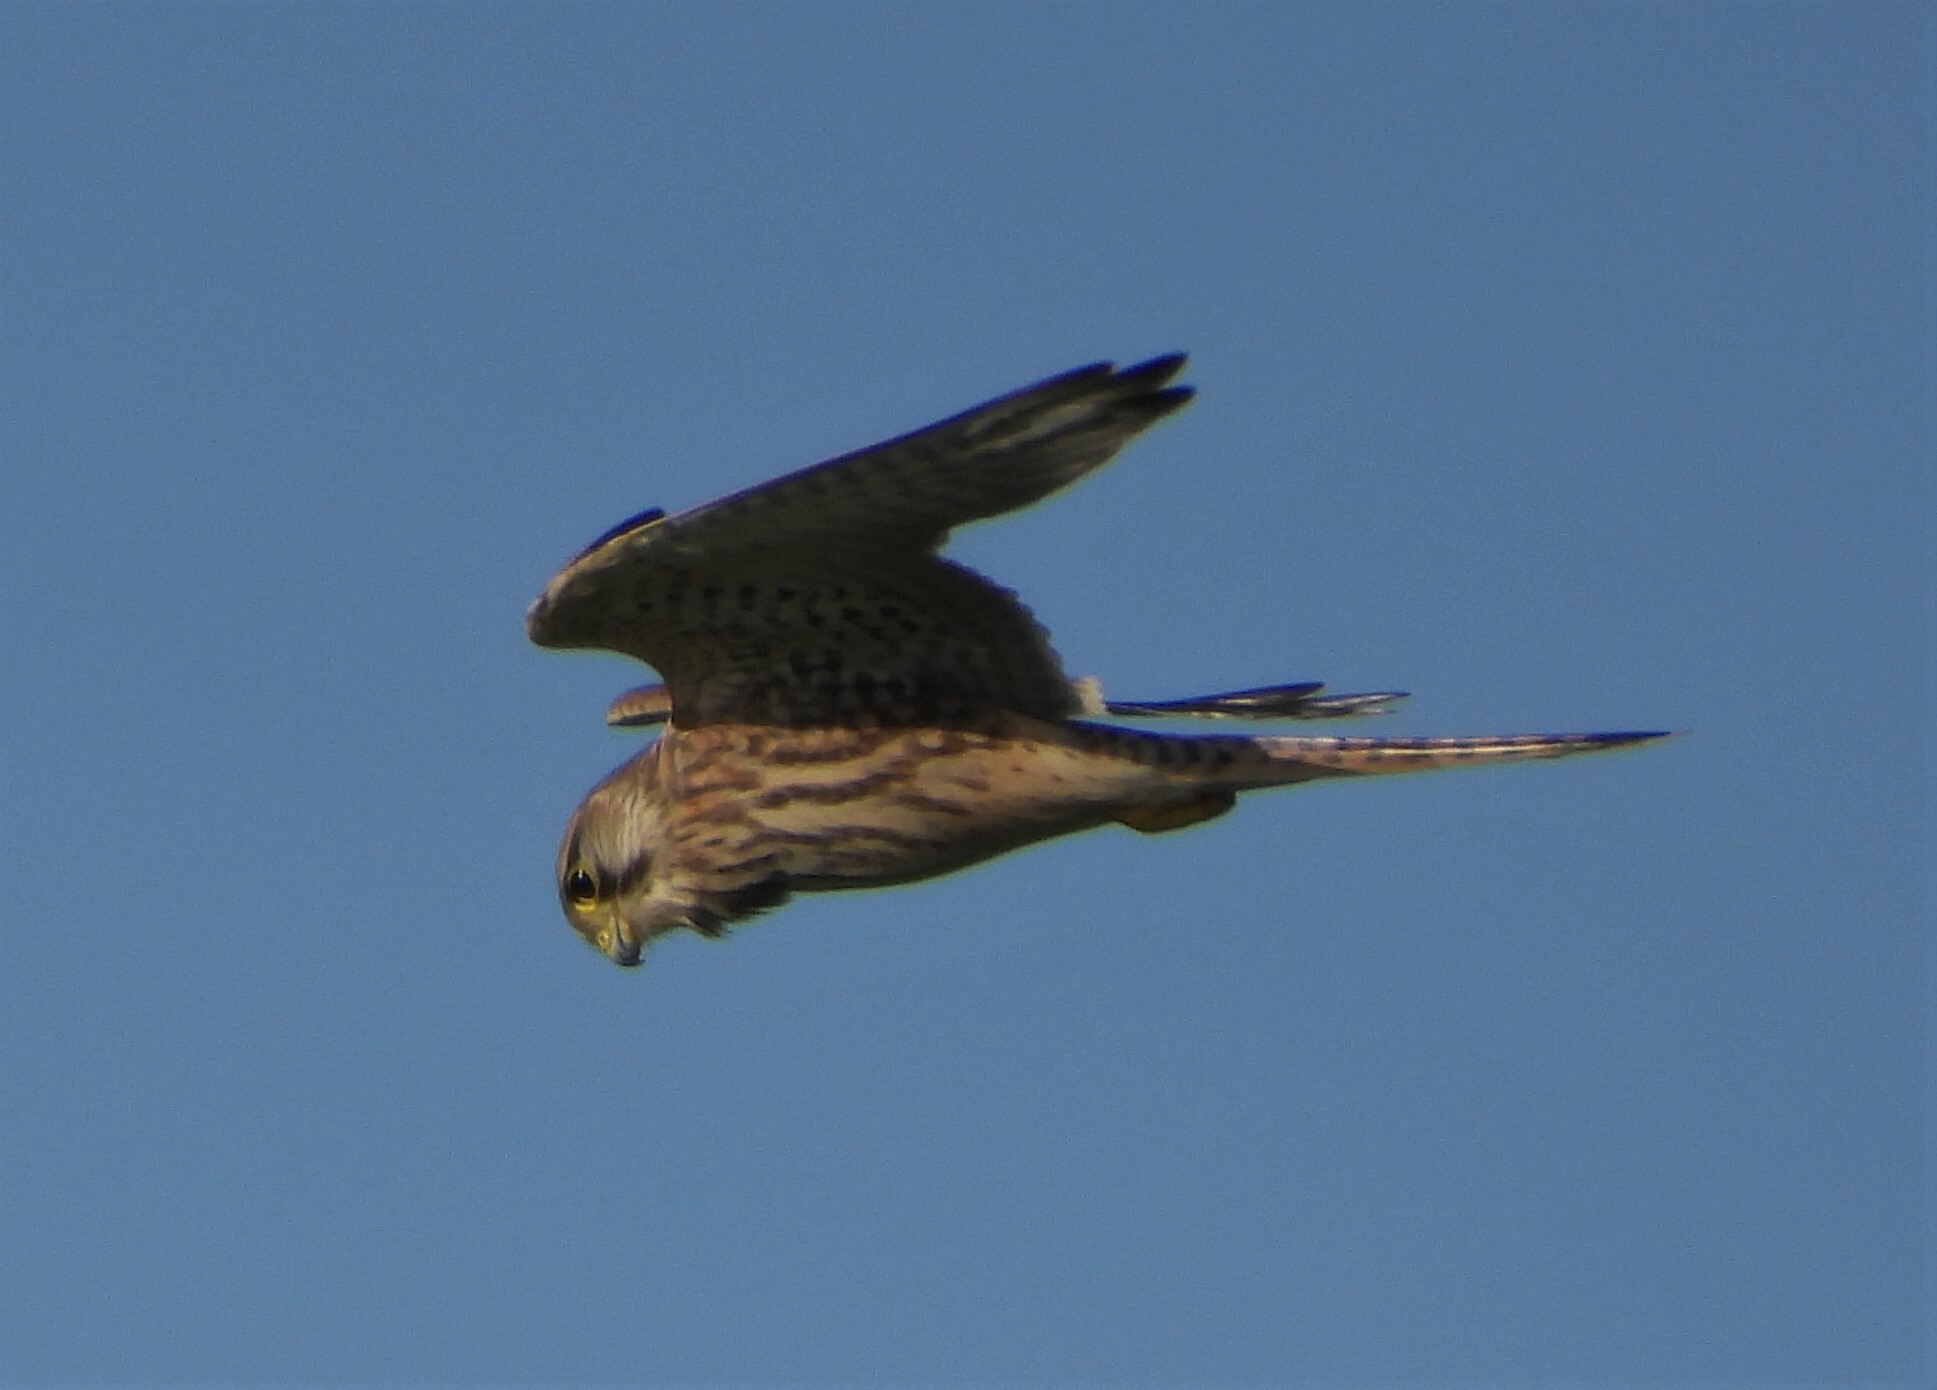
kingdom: Animalia
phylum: Chordata
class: Aves
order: Falconiformes
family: Falconidae
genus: Falco
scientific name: Falco tinnunculus
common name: Common kestrel
